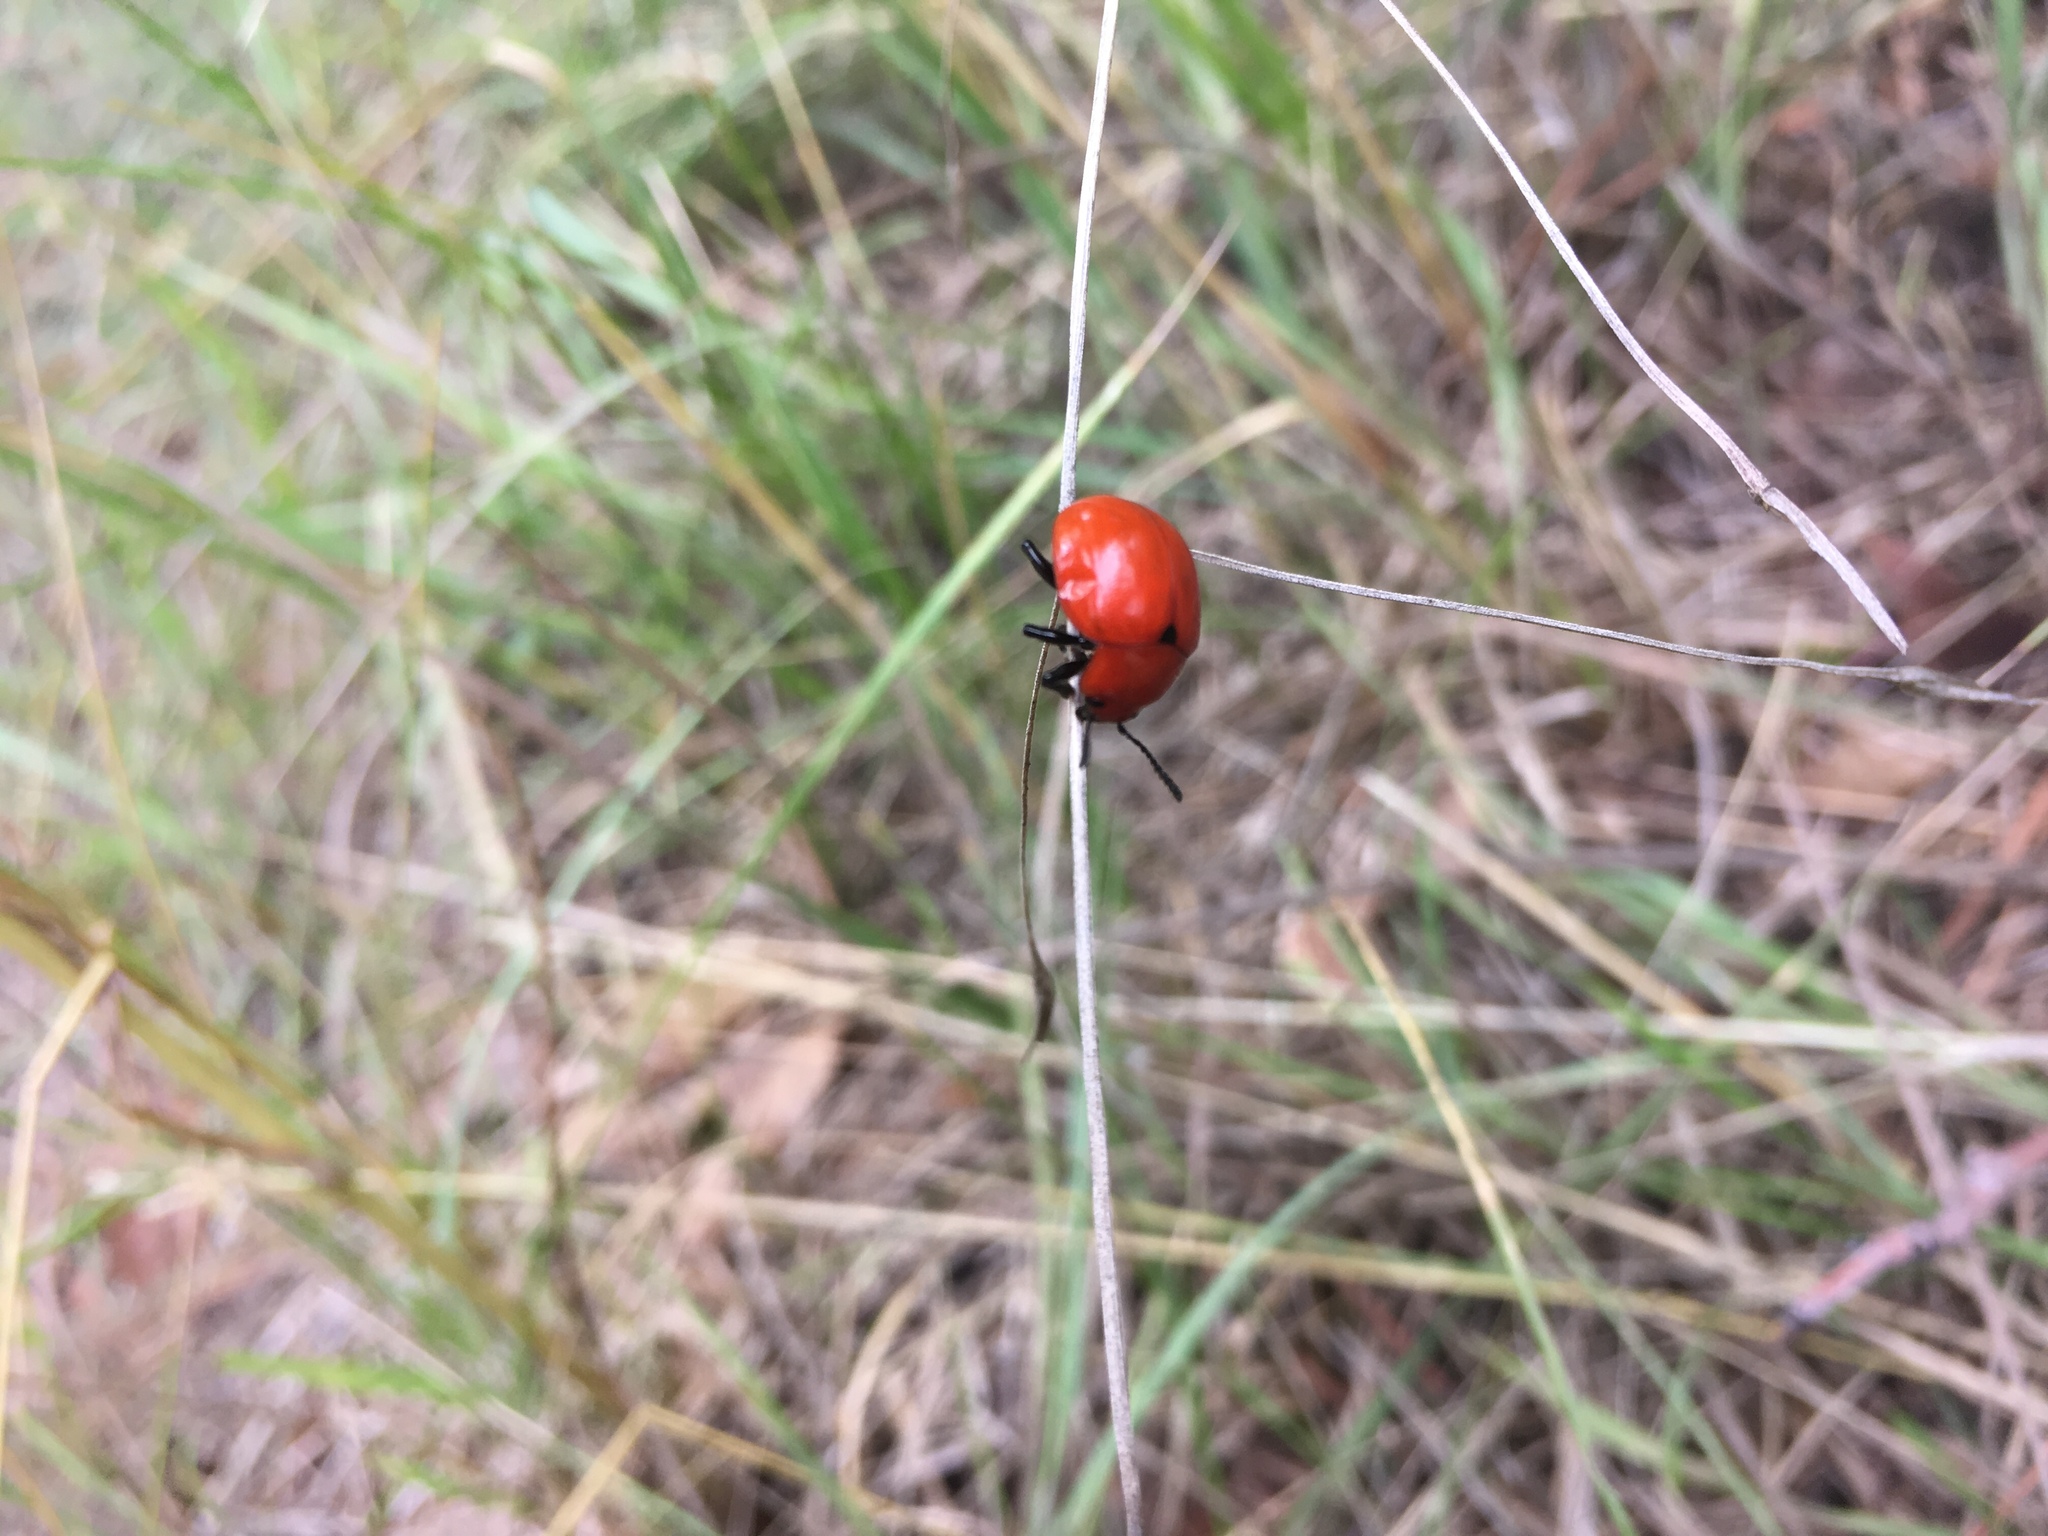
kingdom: Animalia
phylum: Arthropoda
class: Insecta
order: Coleoptera
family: Chrysomelidae
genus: Leptinotarsa
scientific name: Leptinotarsa rubiginosa
